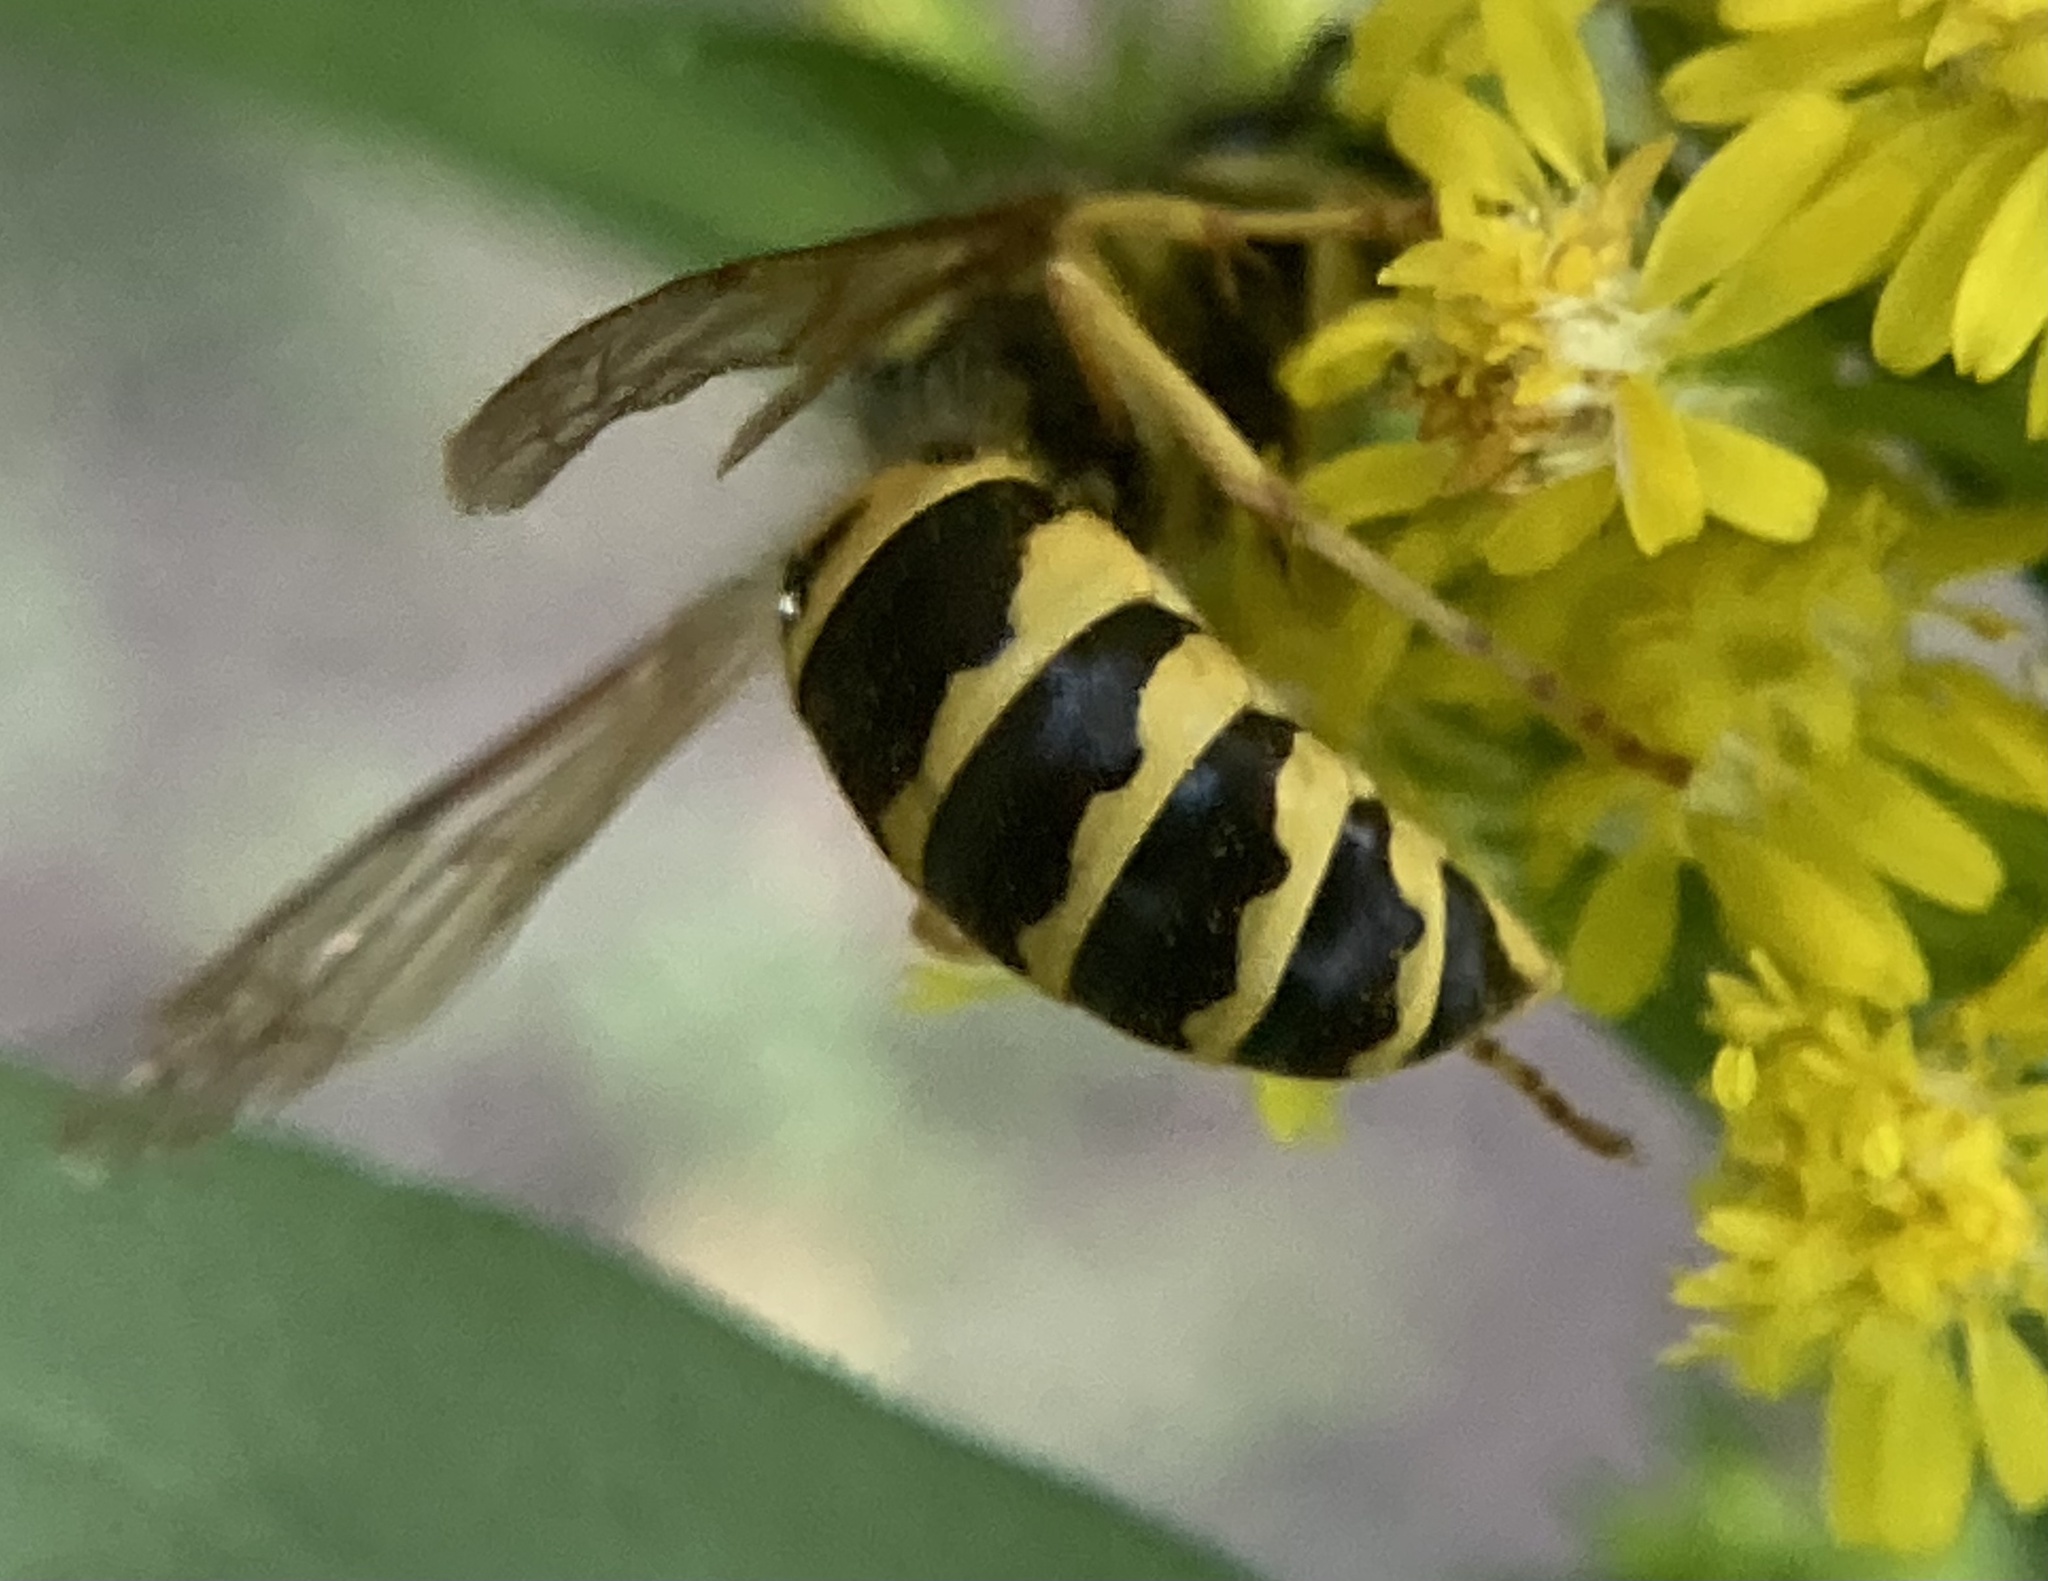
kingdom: Animalia
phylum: Arthropoda
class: Insecta
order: Hymenoptera
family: Vespidae
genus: Vespula
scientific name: Vespula maculifrons
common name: Eastern yellowjacket
